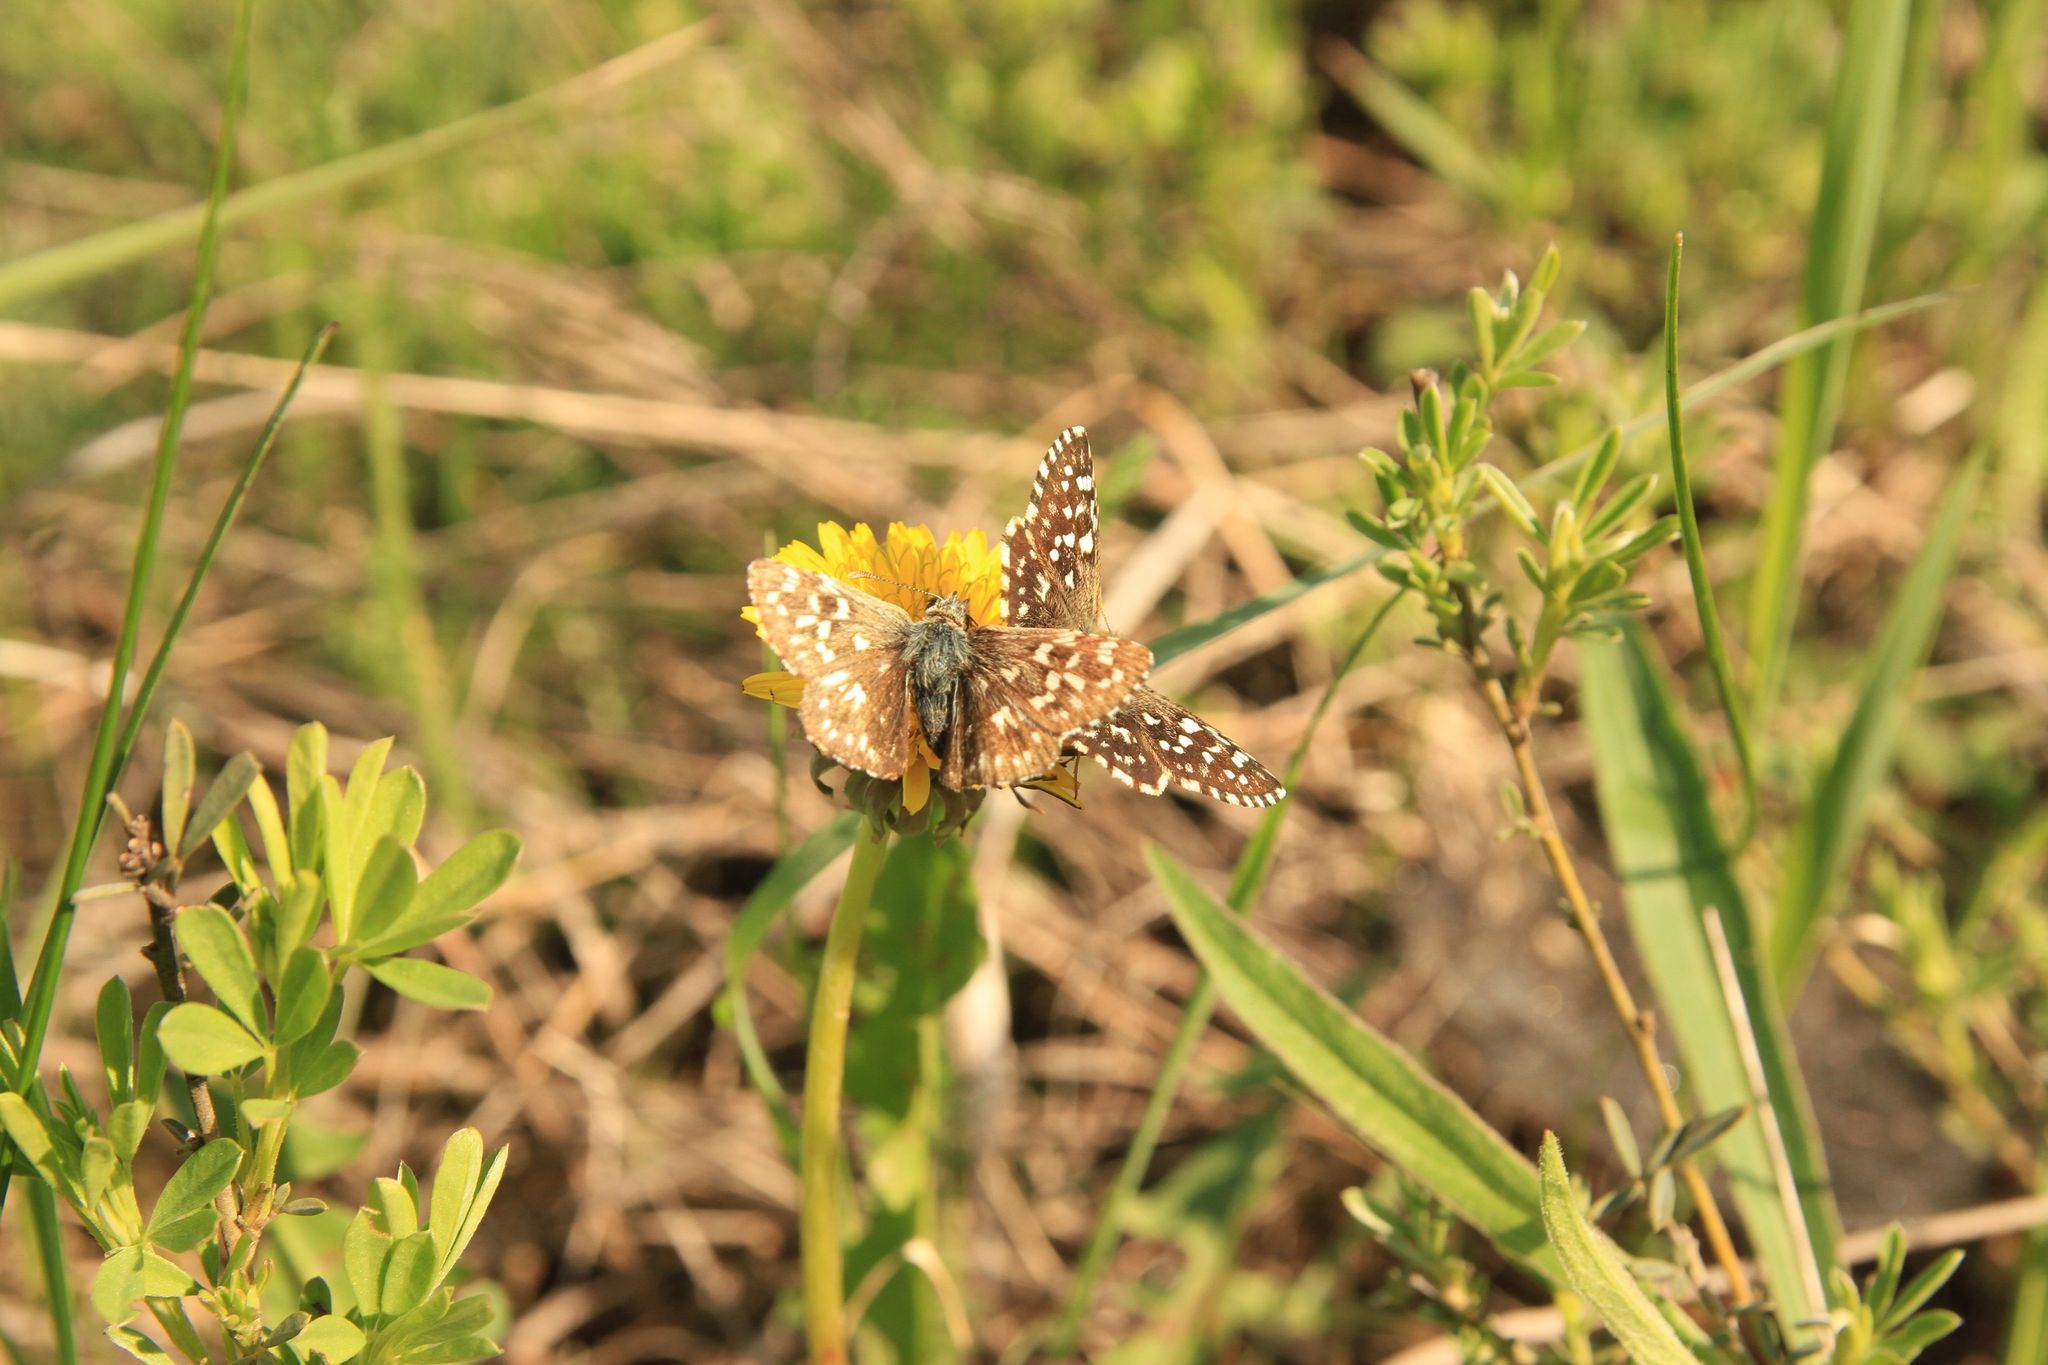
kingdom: Animalia
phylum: Arthropoda
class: Insecta
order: Lepidoptera
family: Hesperiidae
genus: Pyrgus
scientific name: Pyrgus malvae
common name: Grizzled skipper
